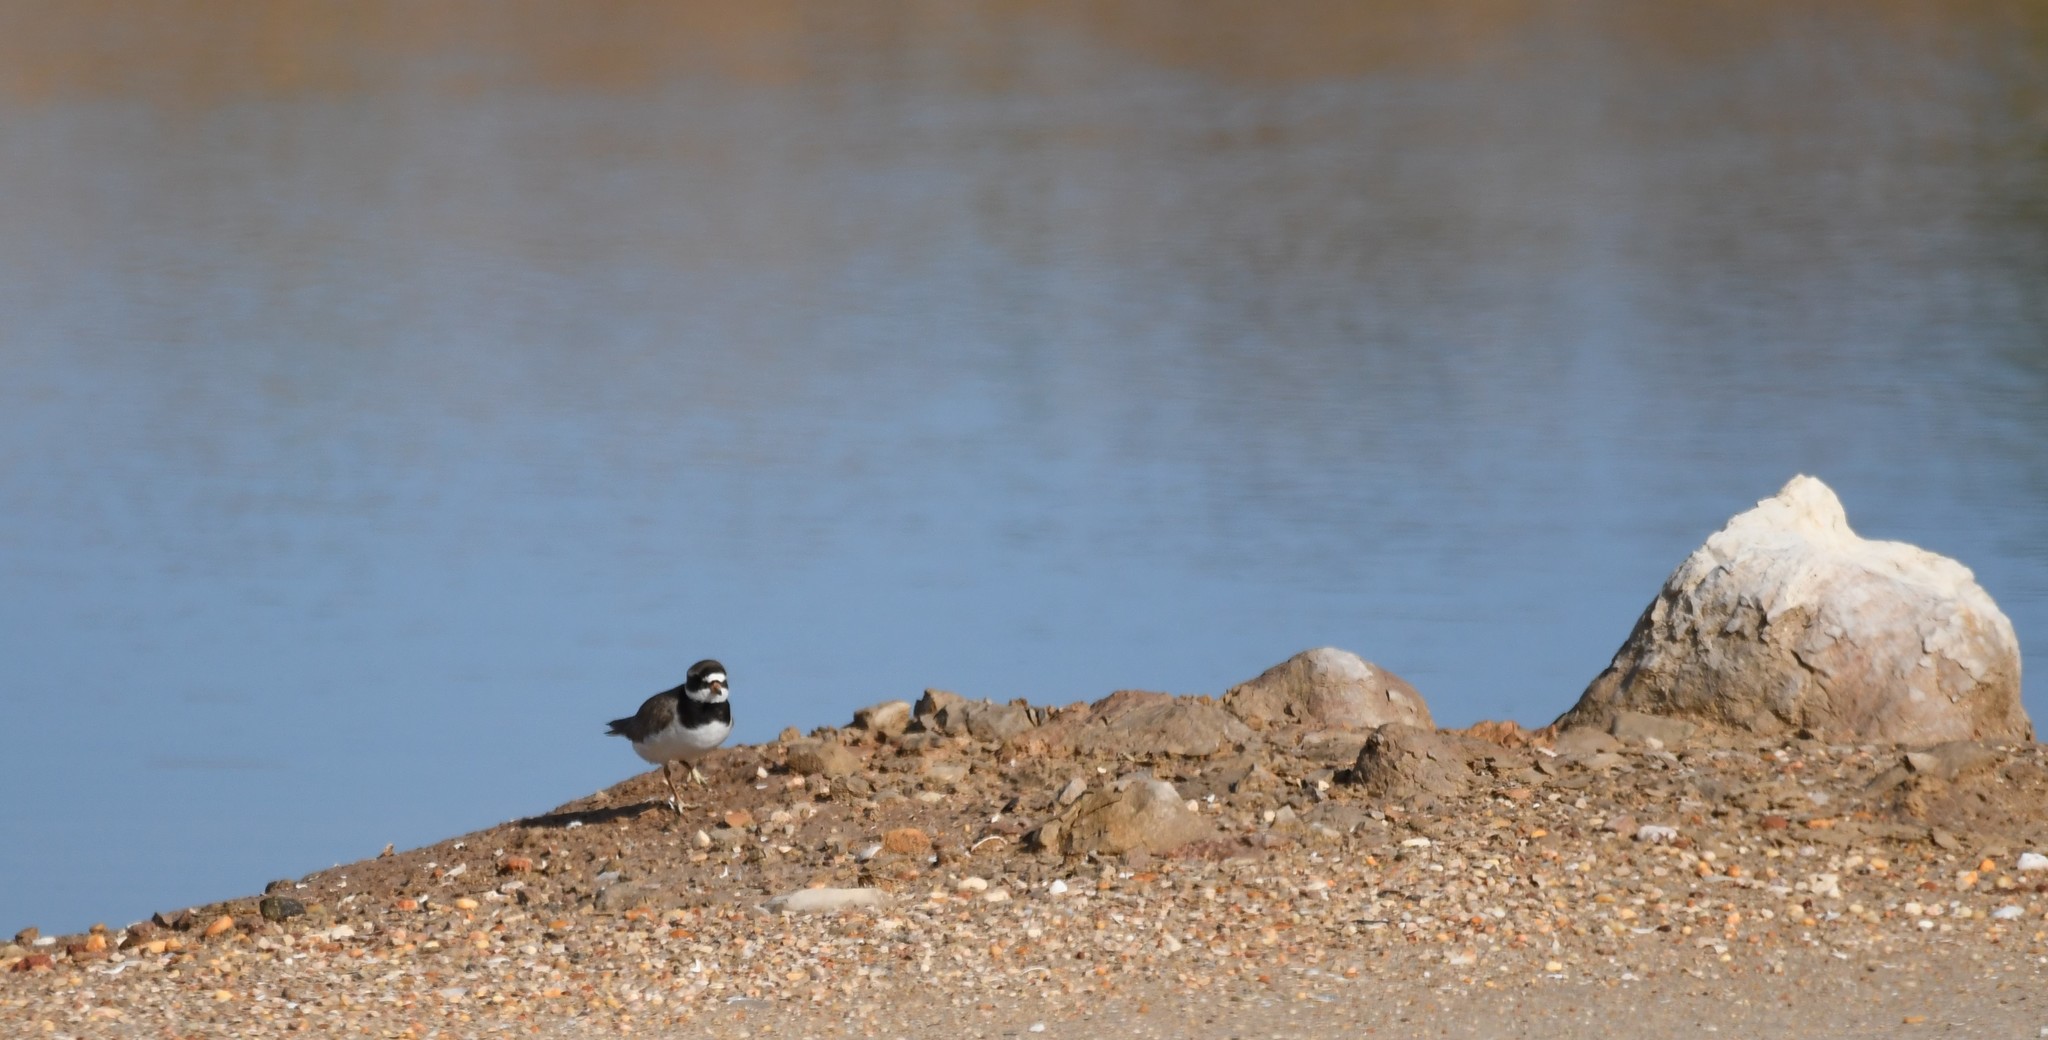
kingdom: Animalia
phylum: Chordata
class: Aves
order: Charadriiformes
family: Charadriidae
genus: Charadrius
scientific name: Charadrius hiaticula
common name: Common ringed plover
